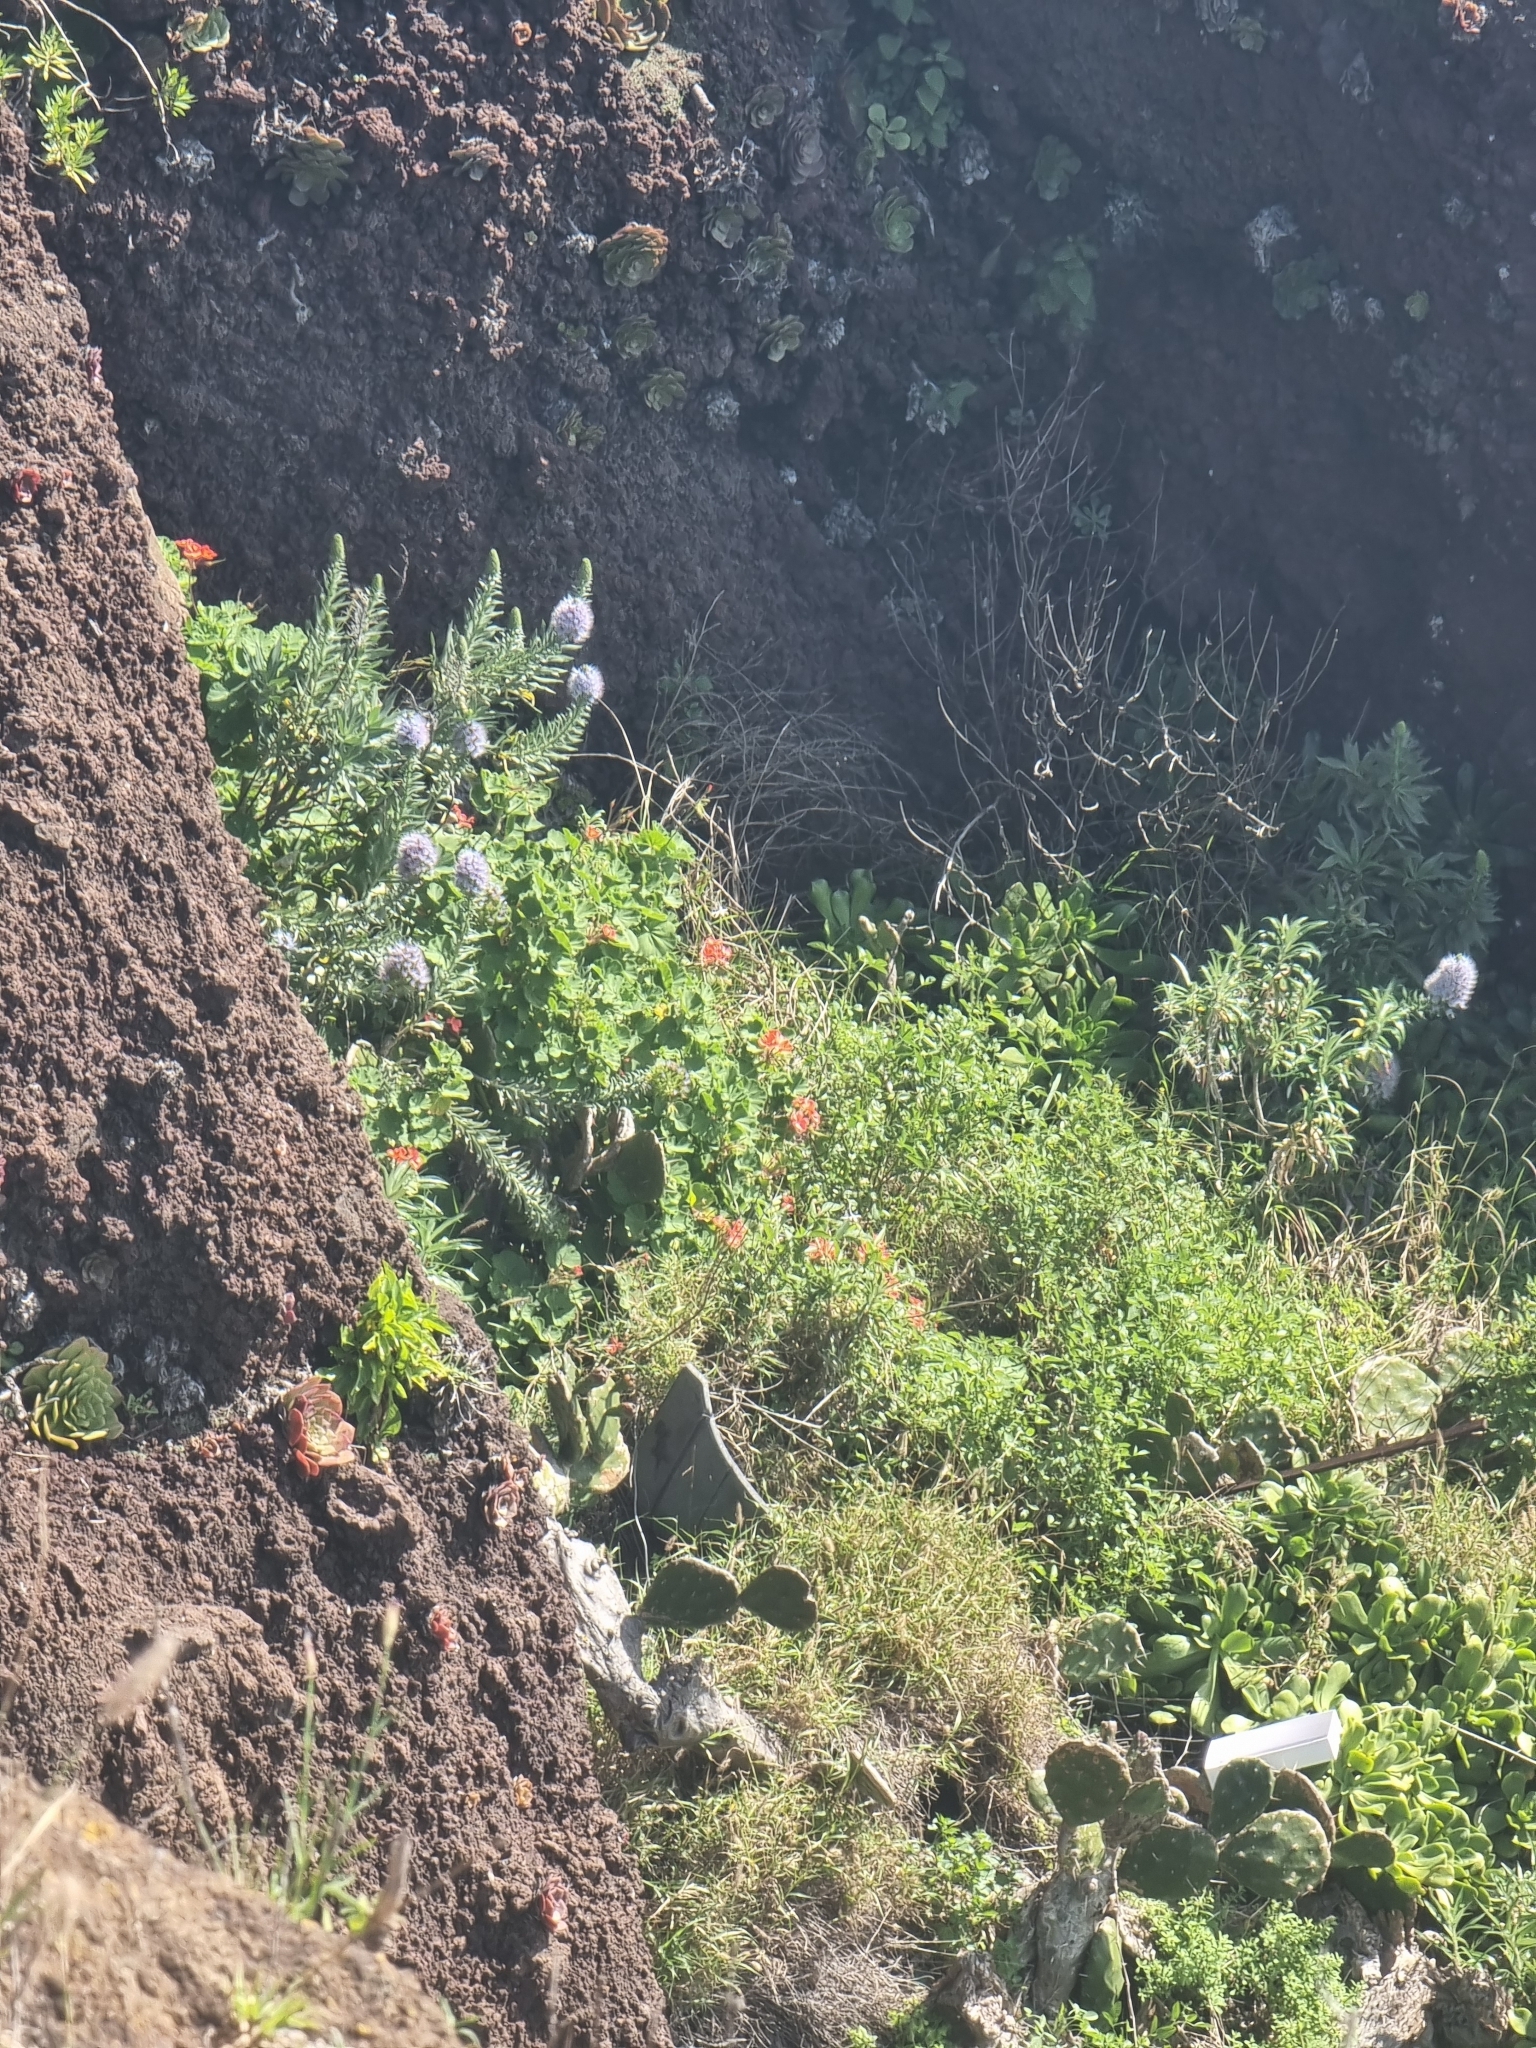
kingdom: Plantae
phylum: Tracheophyta
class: Magnoliopsida
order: Boraginales
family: Boraginaceae
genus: Echium
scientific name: Echium nervosum
